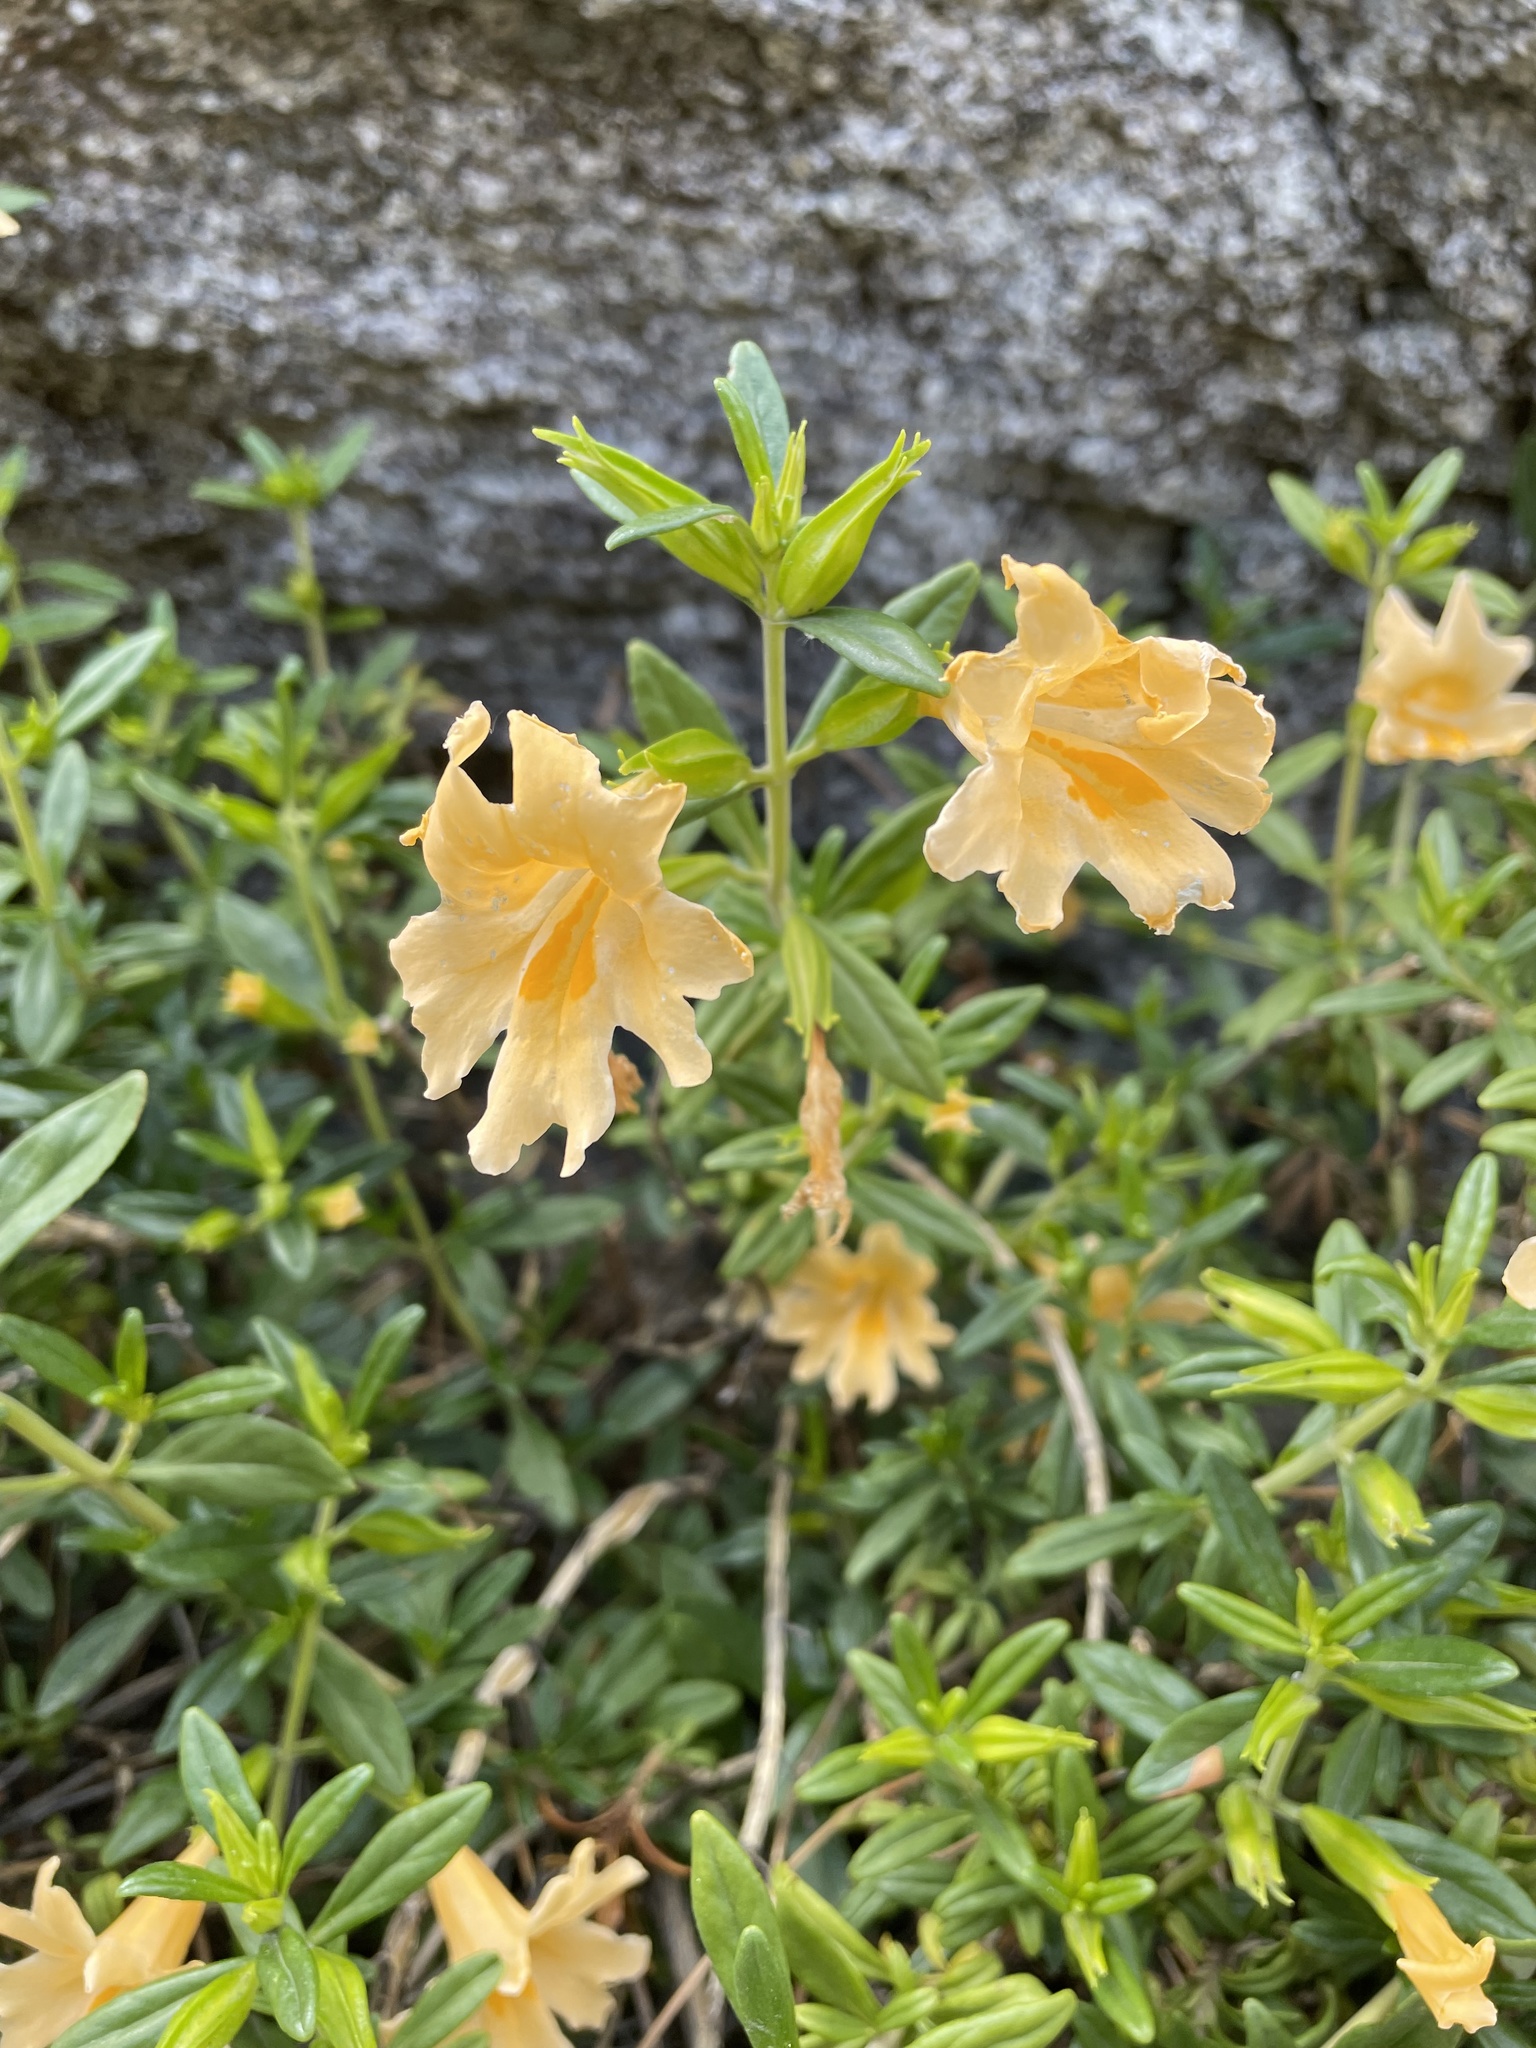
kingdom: Plantae
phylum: Tracheophyta
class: Magnoliopsida
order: Lamiales
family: Phrymaceae
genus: Diplacus
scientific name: Diplacus grandiflorus
